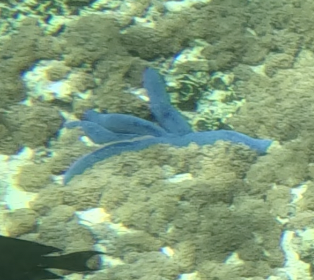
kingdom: Animalia
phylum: Echinodermata
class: Asteroidea
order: Valvatida
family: Ophidiasteridae
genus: Linckia
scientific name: Linckia laevigata
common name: Azure sea star
